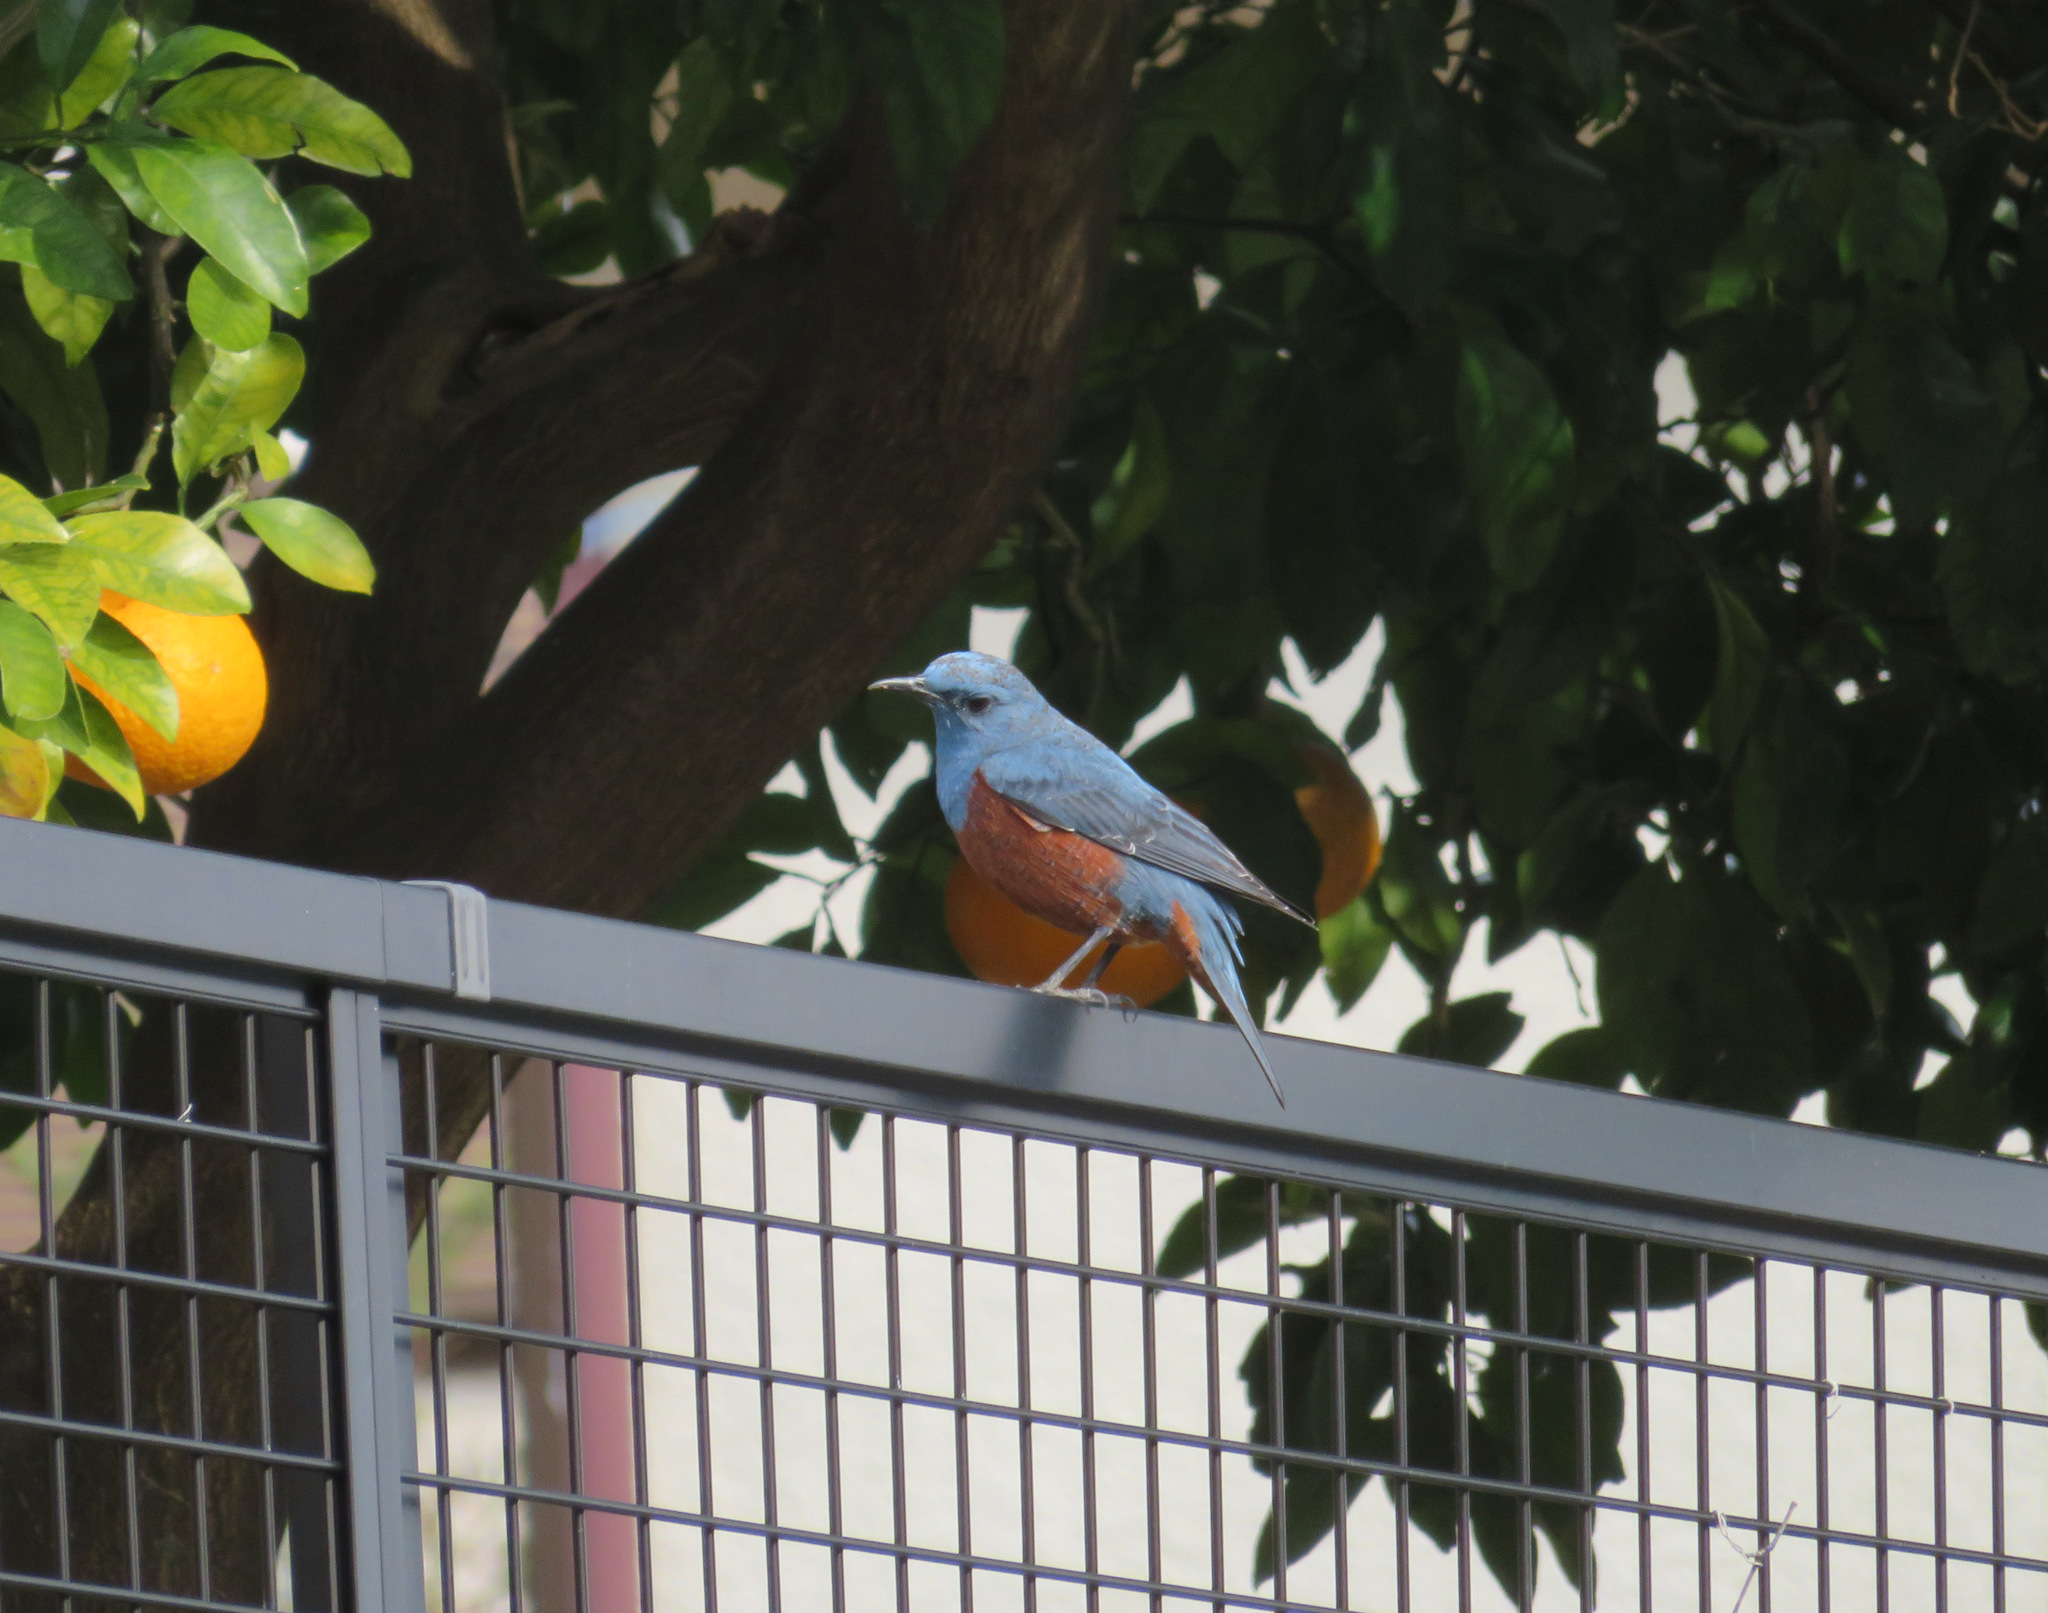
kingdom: Animalia
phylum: Chordata
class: Aves
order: Passeriformes
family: Muscicapidae
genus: Monticola
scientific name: Monticola solitarius
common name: Blue rock thrush
